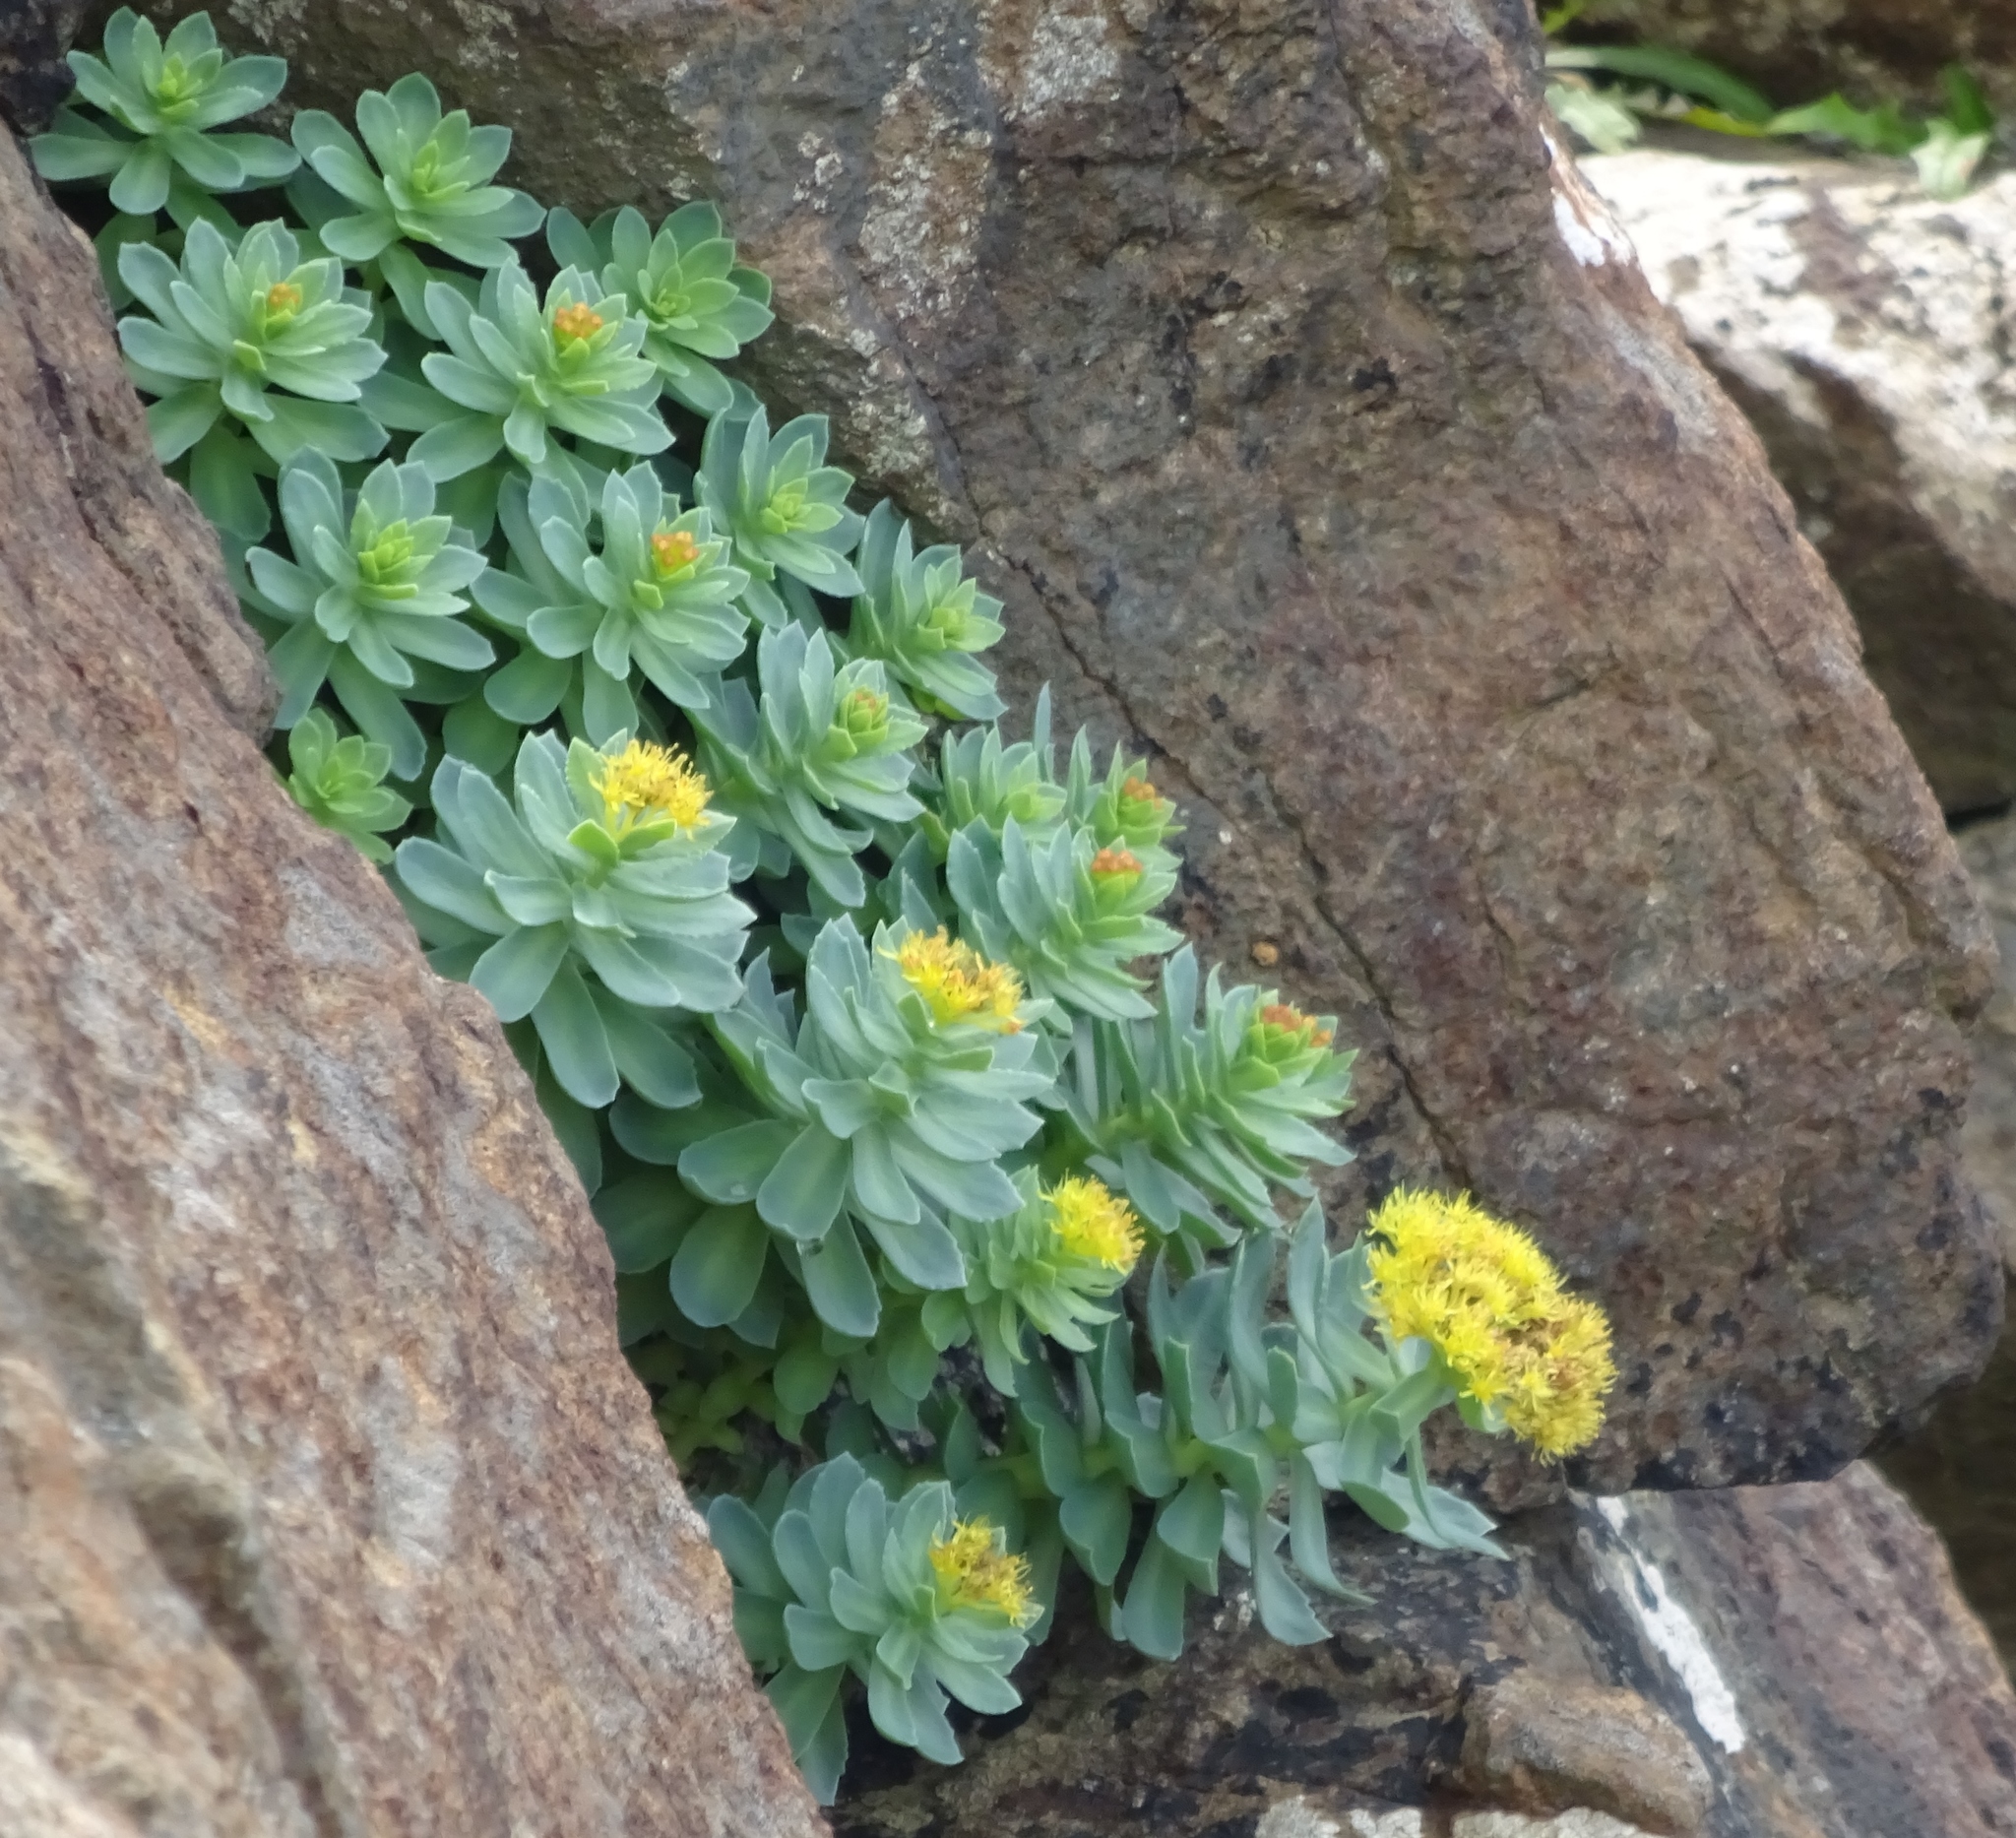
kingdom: Plantae
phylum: Tracheophyta
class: Magnoliopsida
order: Saxifragales
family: Crassulaceae
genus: Rhodiola
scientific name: Rhodiola rosea
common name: Roseroot
